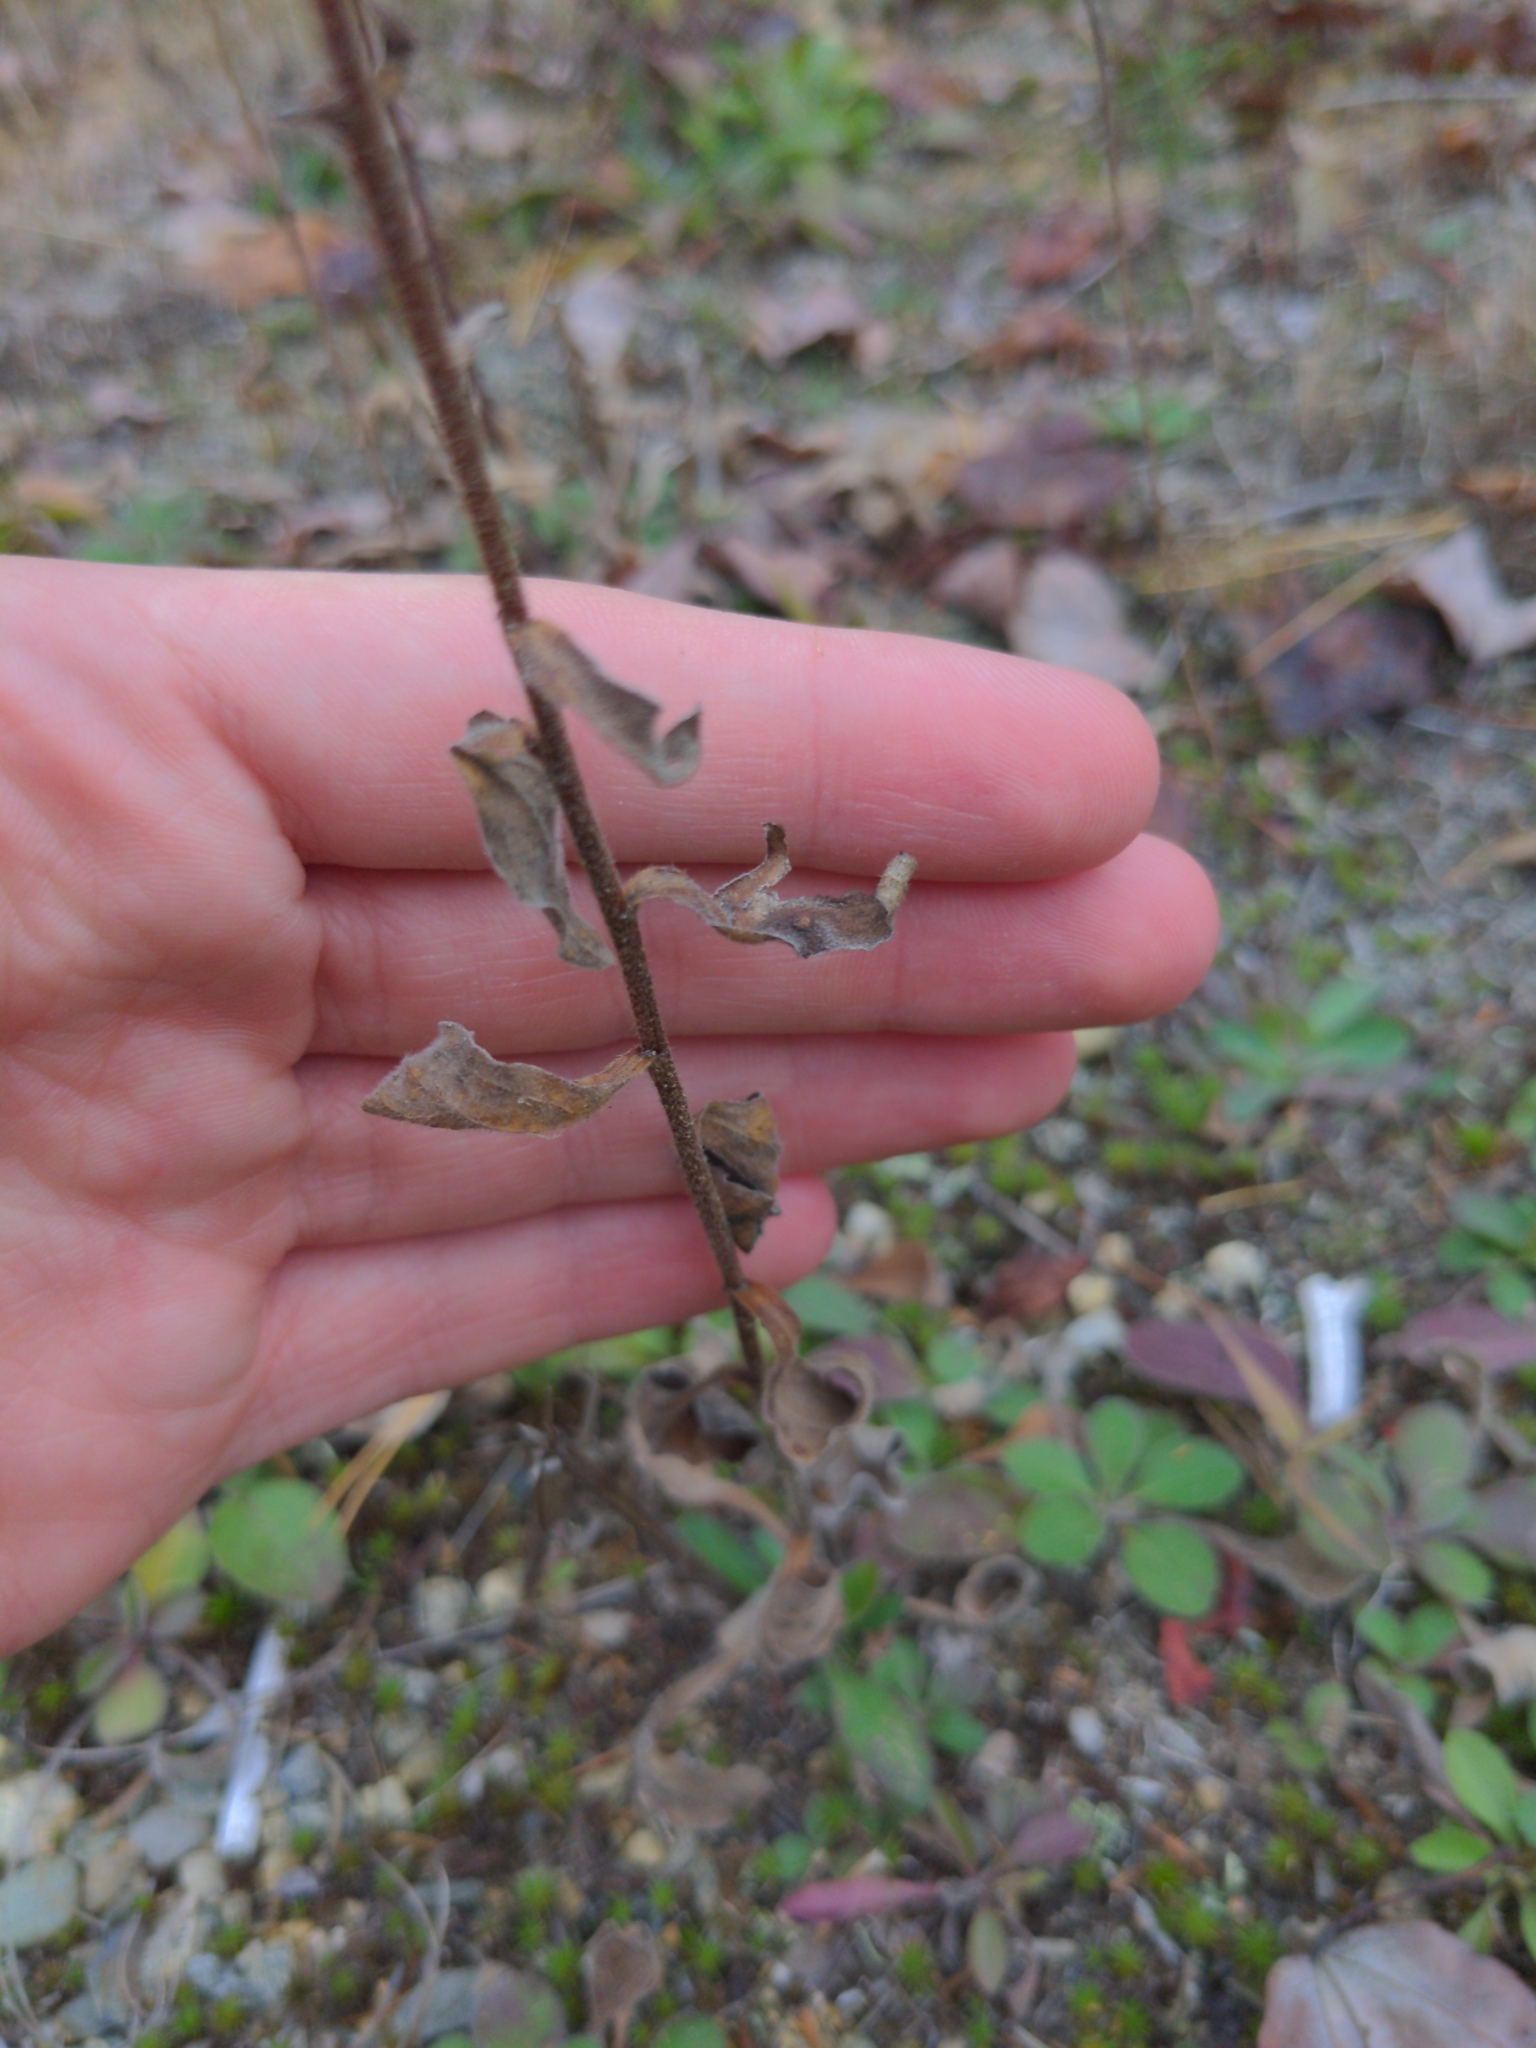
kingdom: Plantae
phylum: Tracheophyta
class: Magnoliopsida
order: Asterales
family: Asteraceae
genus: Solidago
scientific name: Solidago bicolor
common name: Silverrod
